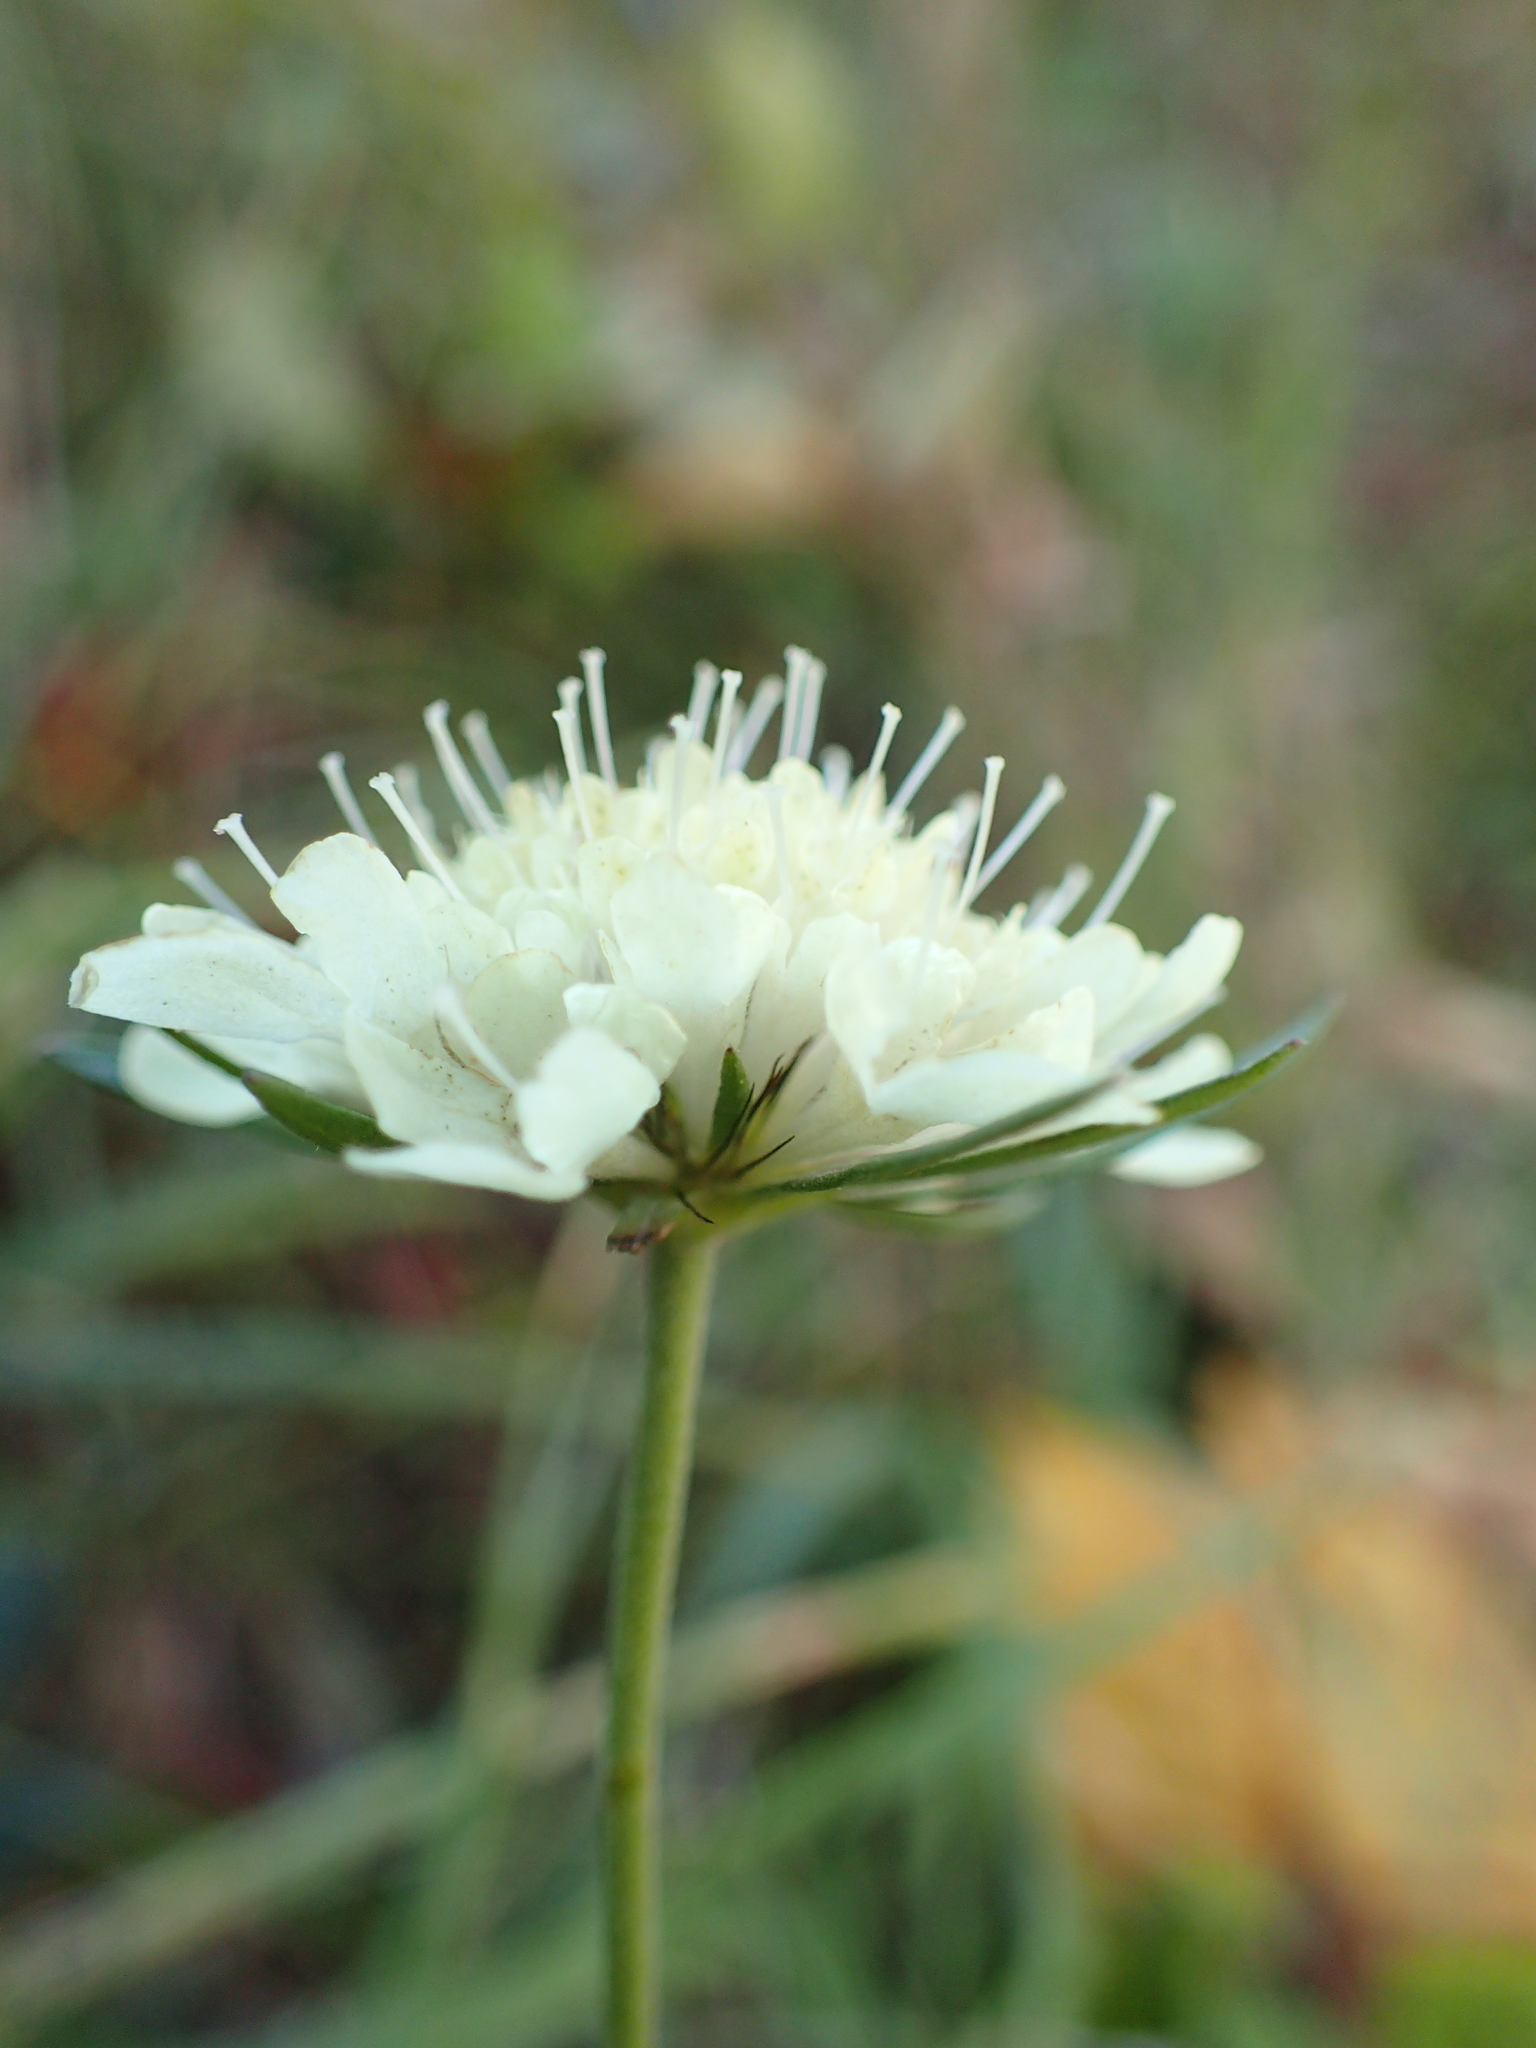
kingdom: Plantae
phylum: Tracheophyta
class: Magnoliopsida
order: Dipsacales
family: Caprifoliaceae
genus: Scabiosa
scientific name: Scabiosa ochroleuca
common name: Cream pincushions
